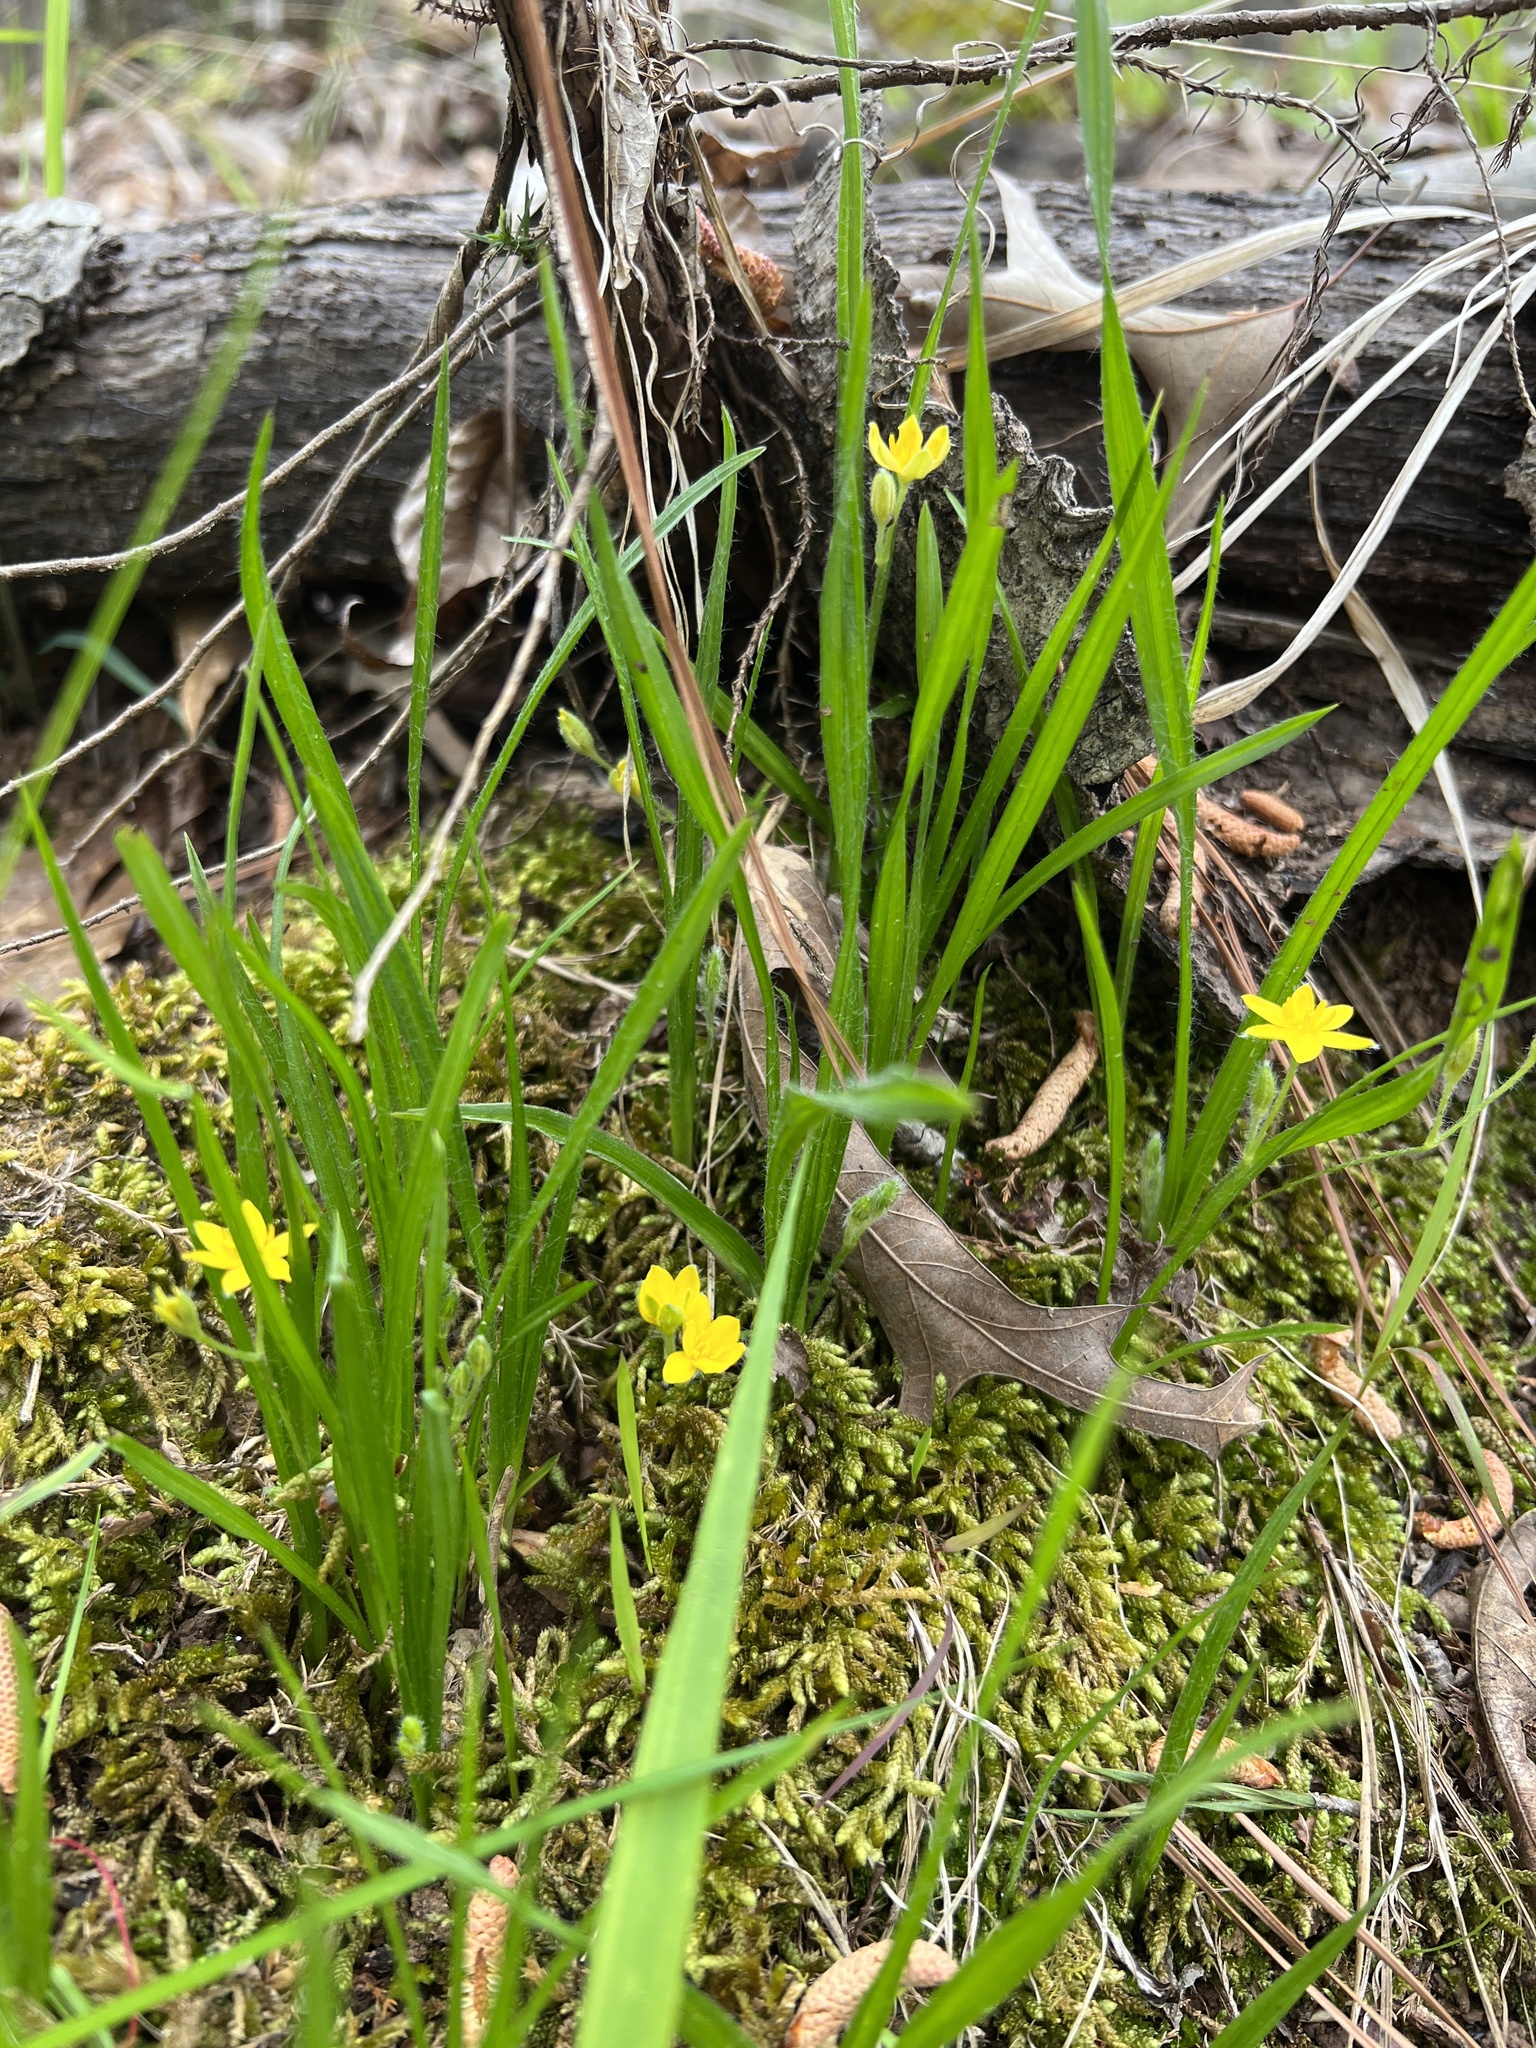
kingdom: Plantae
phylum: Tracheophyta
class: Liliopsida
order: Asparagales
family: Hypoxidaceae
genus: Hypoxis
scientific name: Hypoxis hirsuta
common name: Common goldstar
